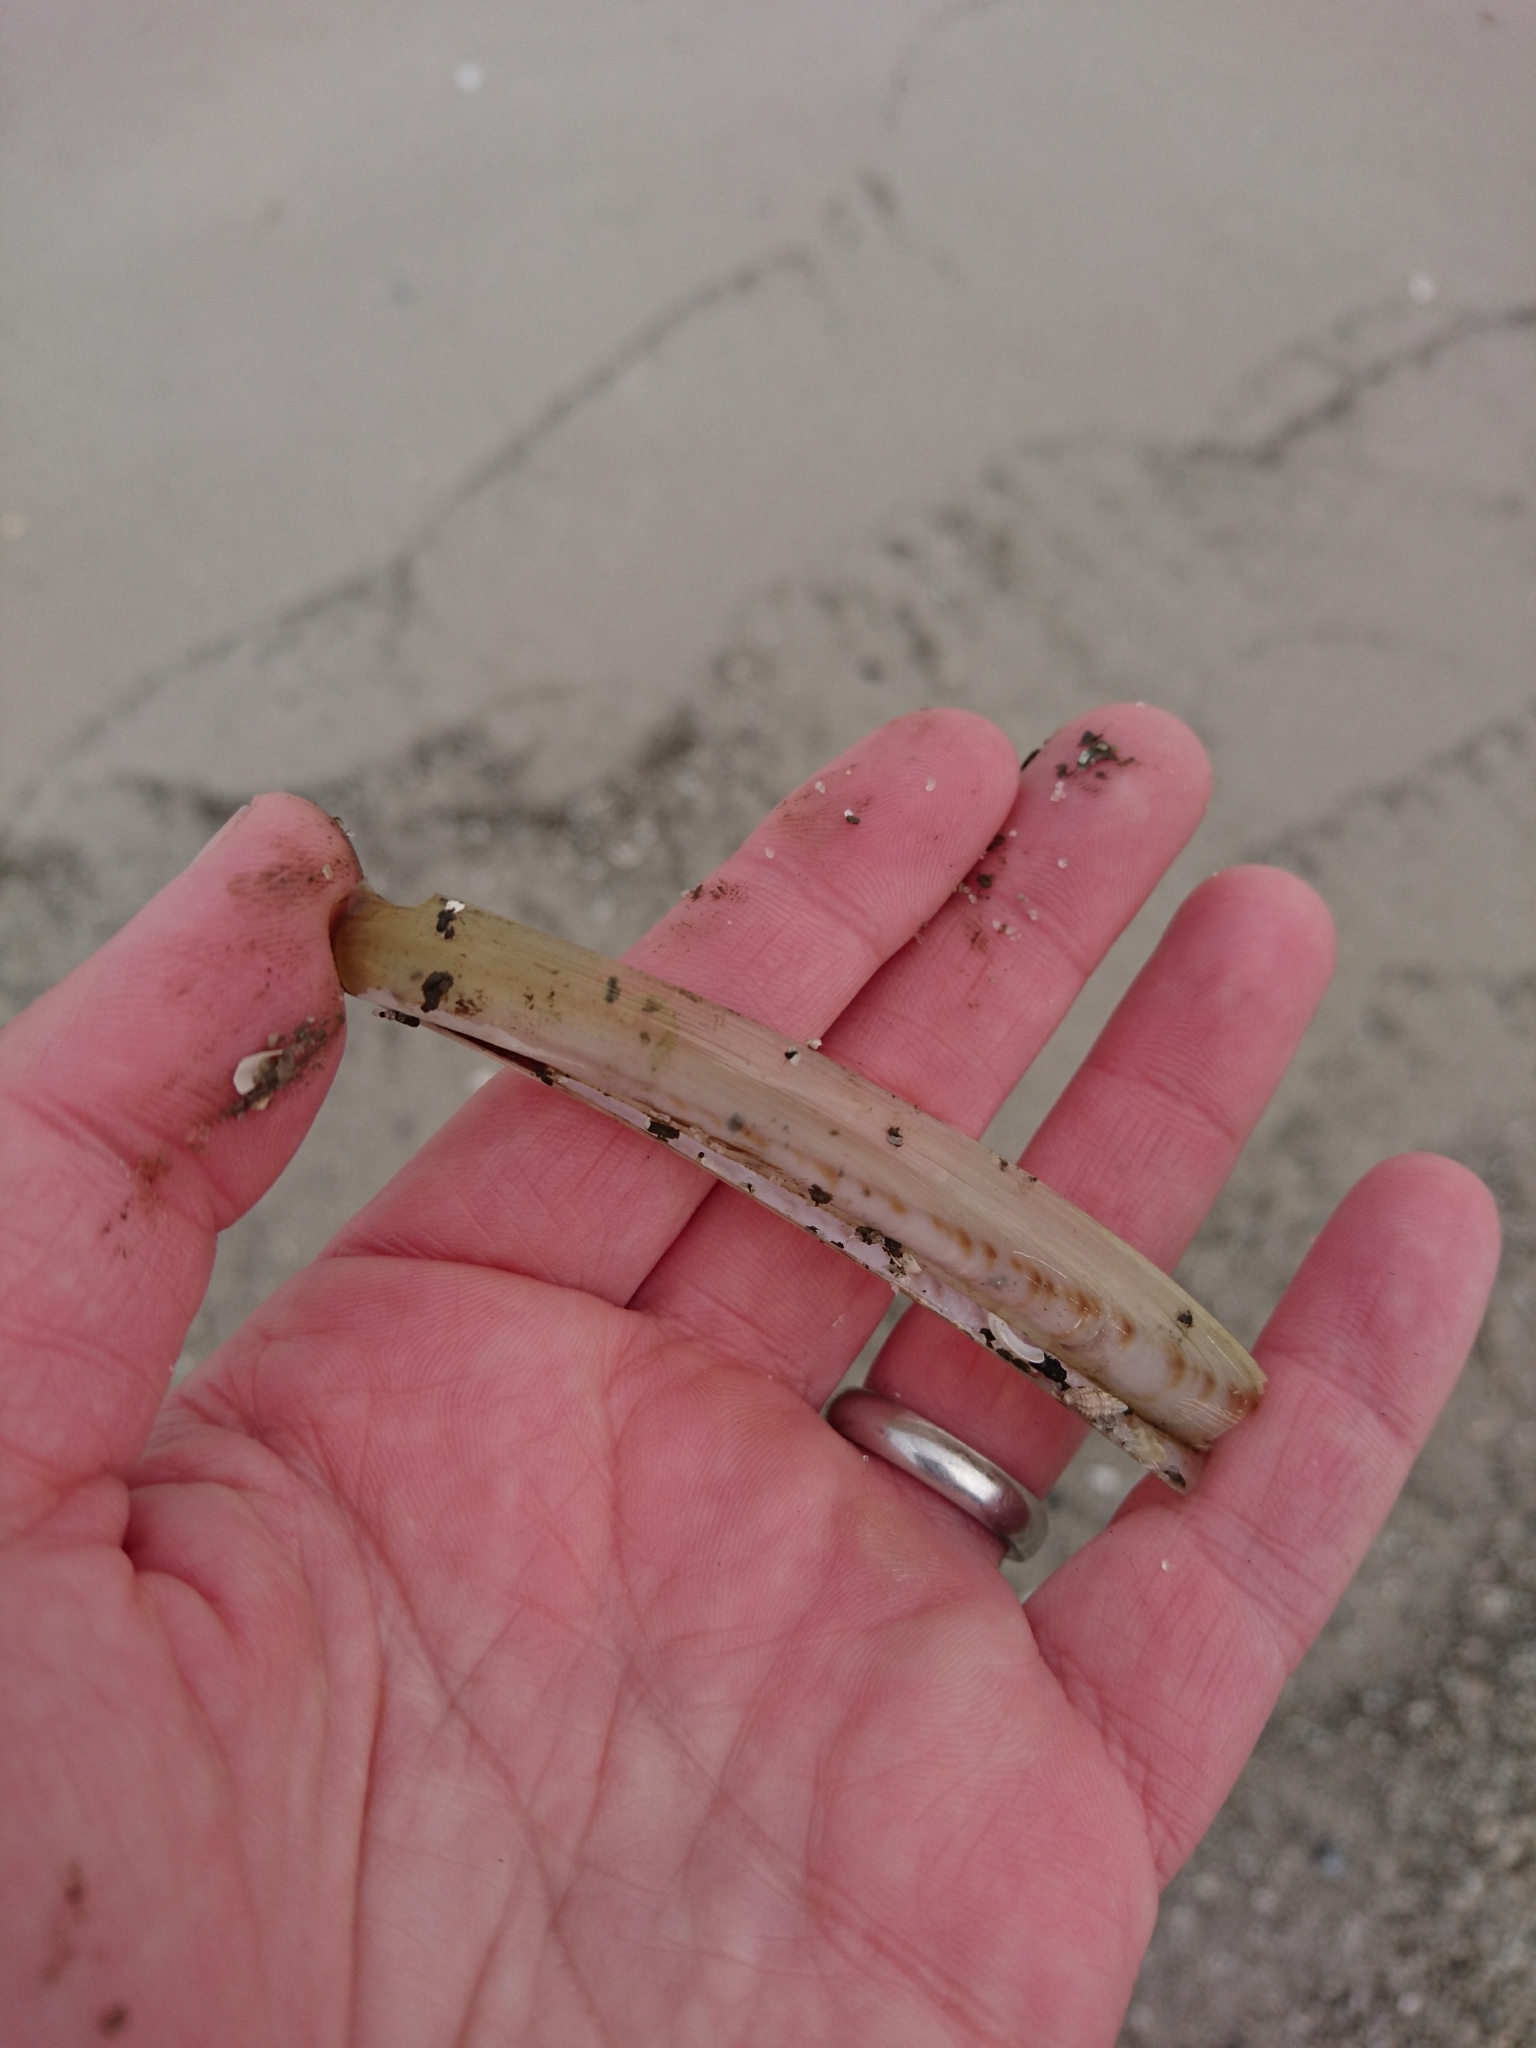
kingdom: Animalia
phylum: Mollusca
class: Bivalvia
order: Adapedonta
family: Pharidae
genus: Ensis
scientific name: Ensis megistus
